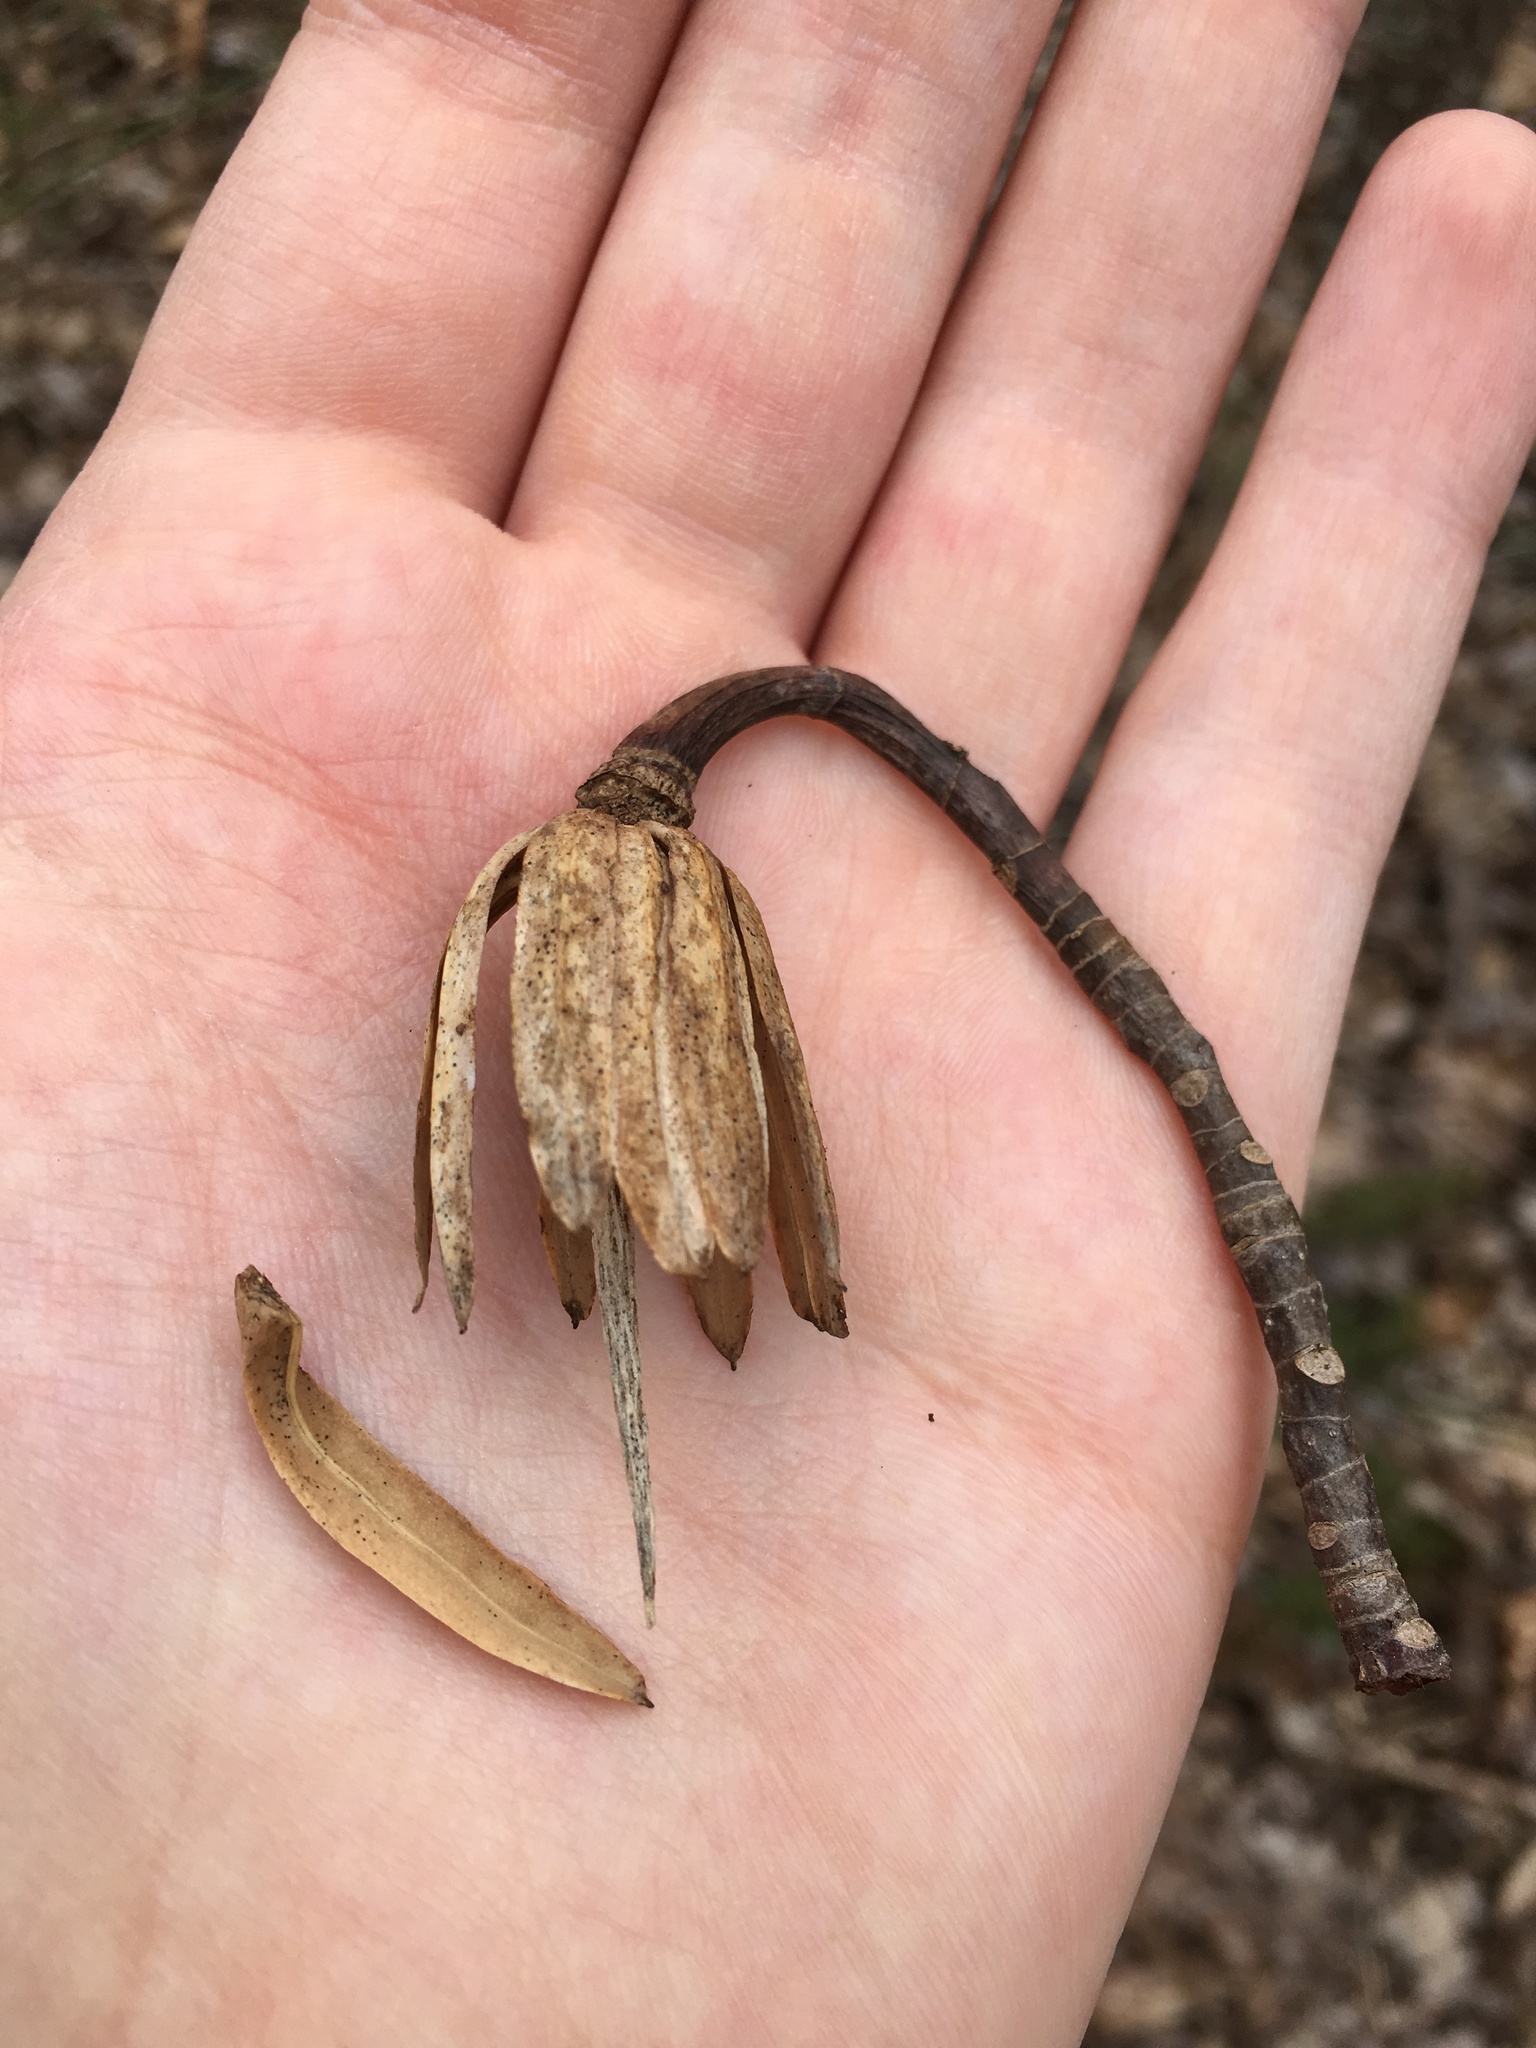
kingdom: Plantae
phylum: Tracheophyta
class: Magnoliopsida
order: Magnoliales
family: Magnoliaceae
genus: Liriodendron
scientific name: Liriodendron tulipifera
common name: Tulip tree
